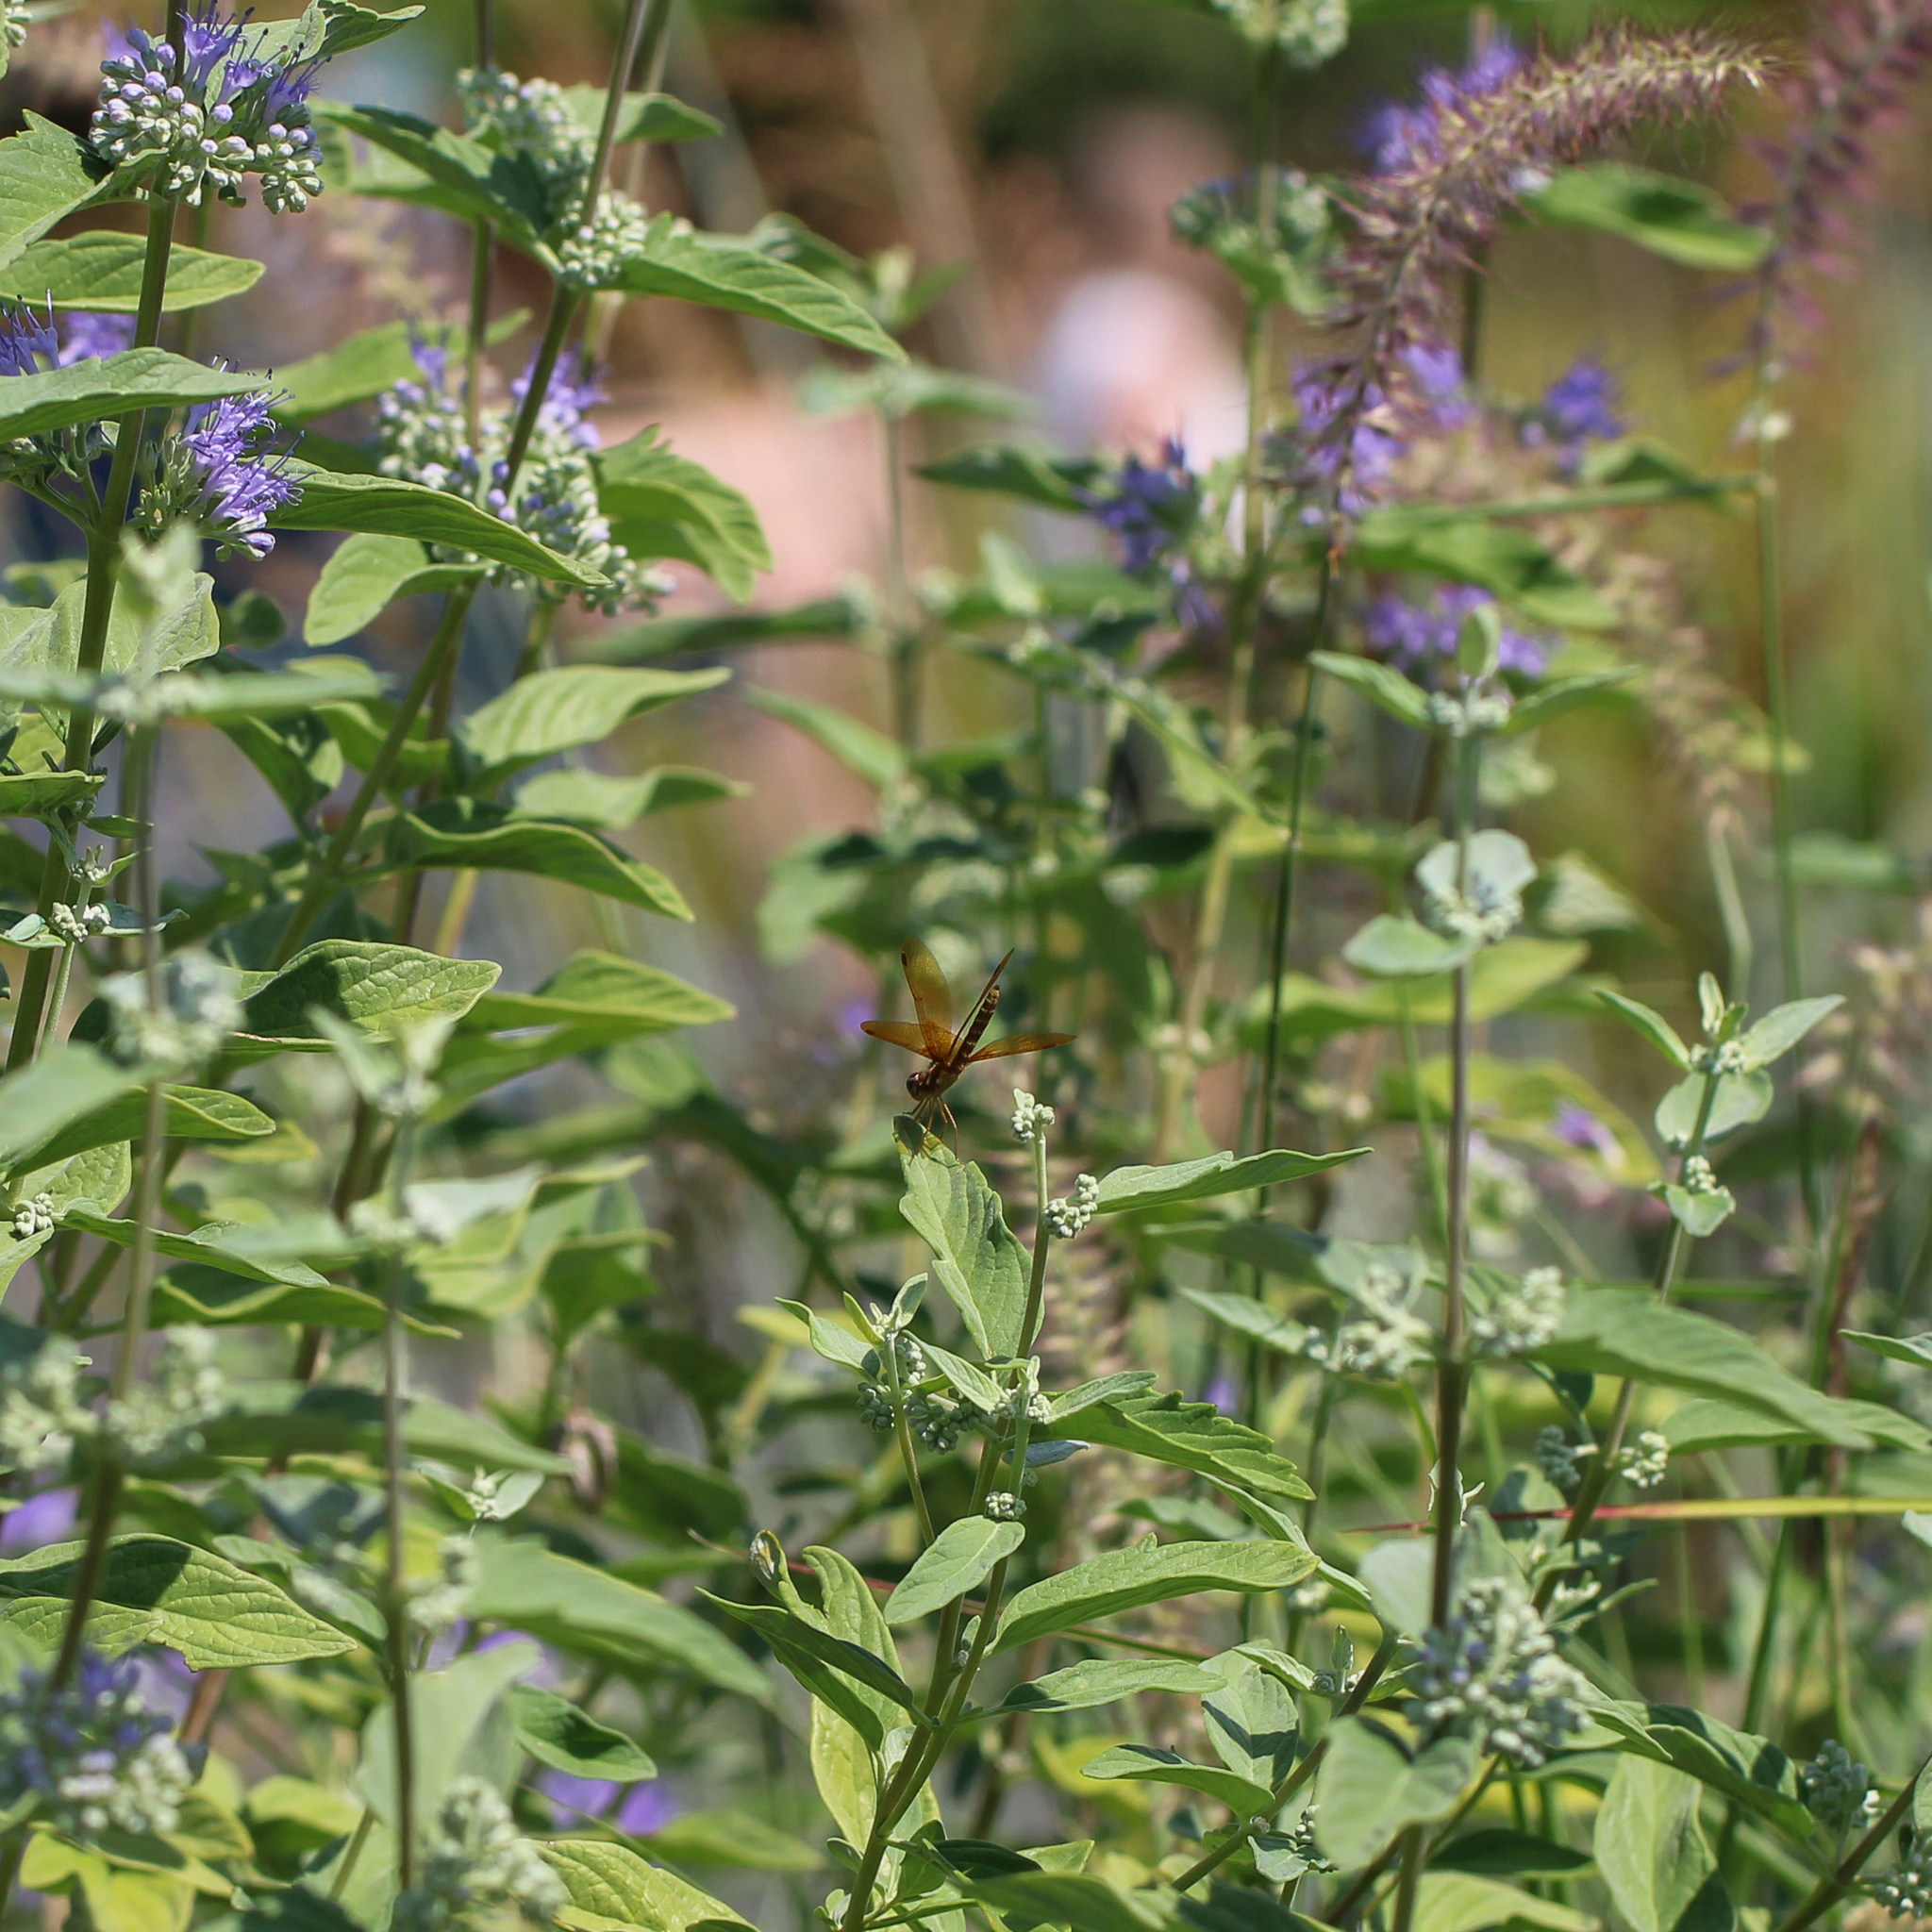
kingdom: Animalia
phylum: Arthropoda
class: Insecta
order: Odonata
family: Libellulidae
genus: Perithemis
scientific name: Perithemis tenera
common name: Eastern amberwing
